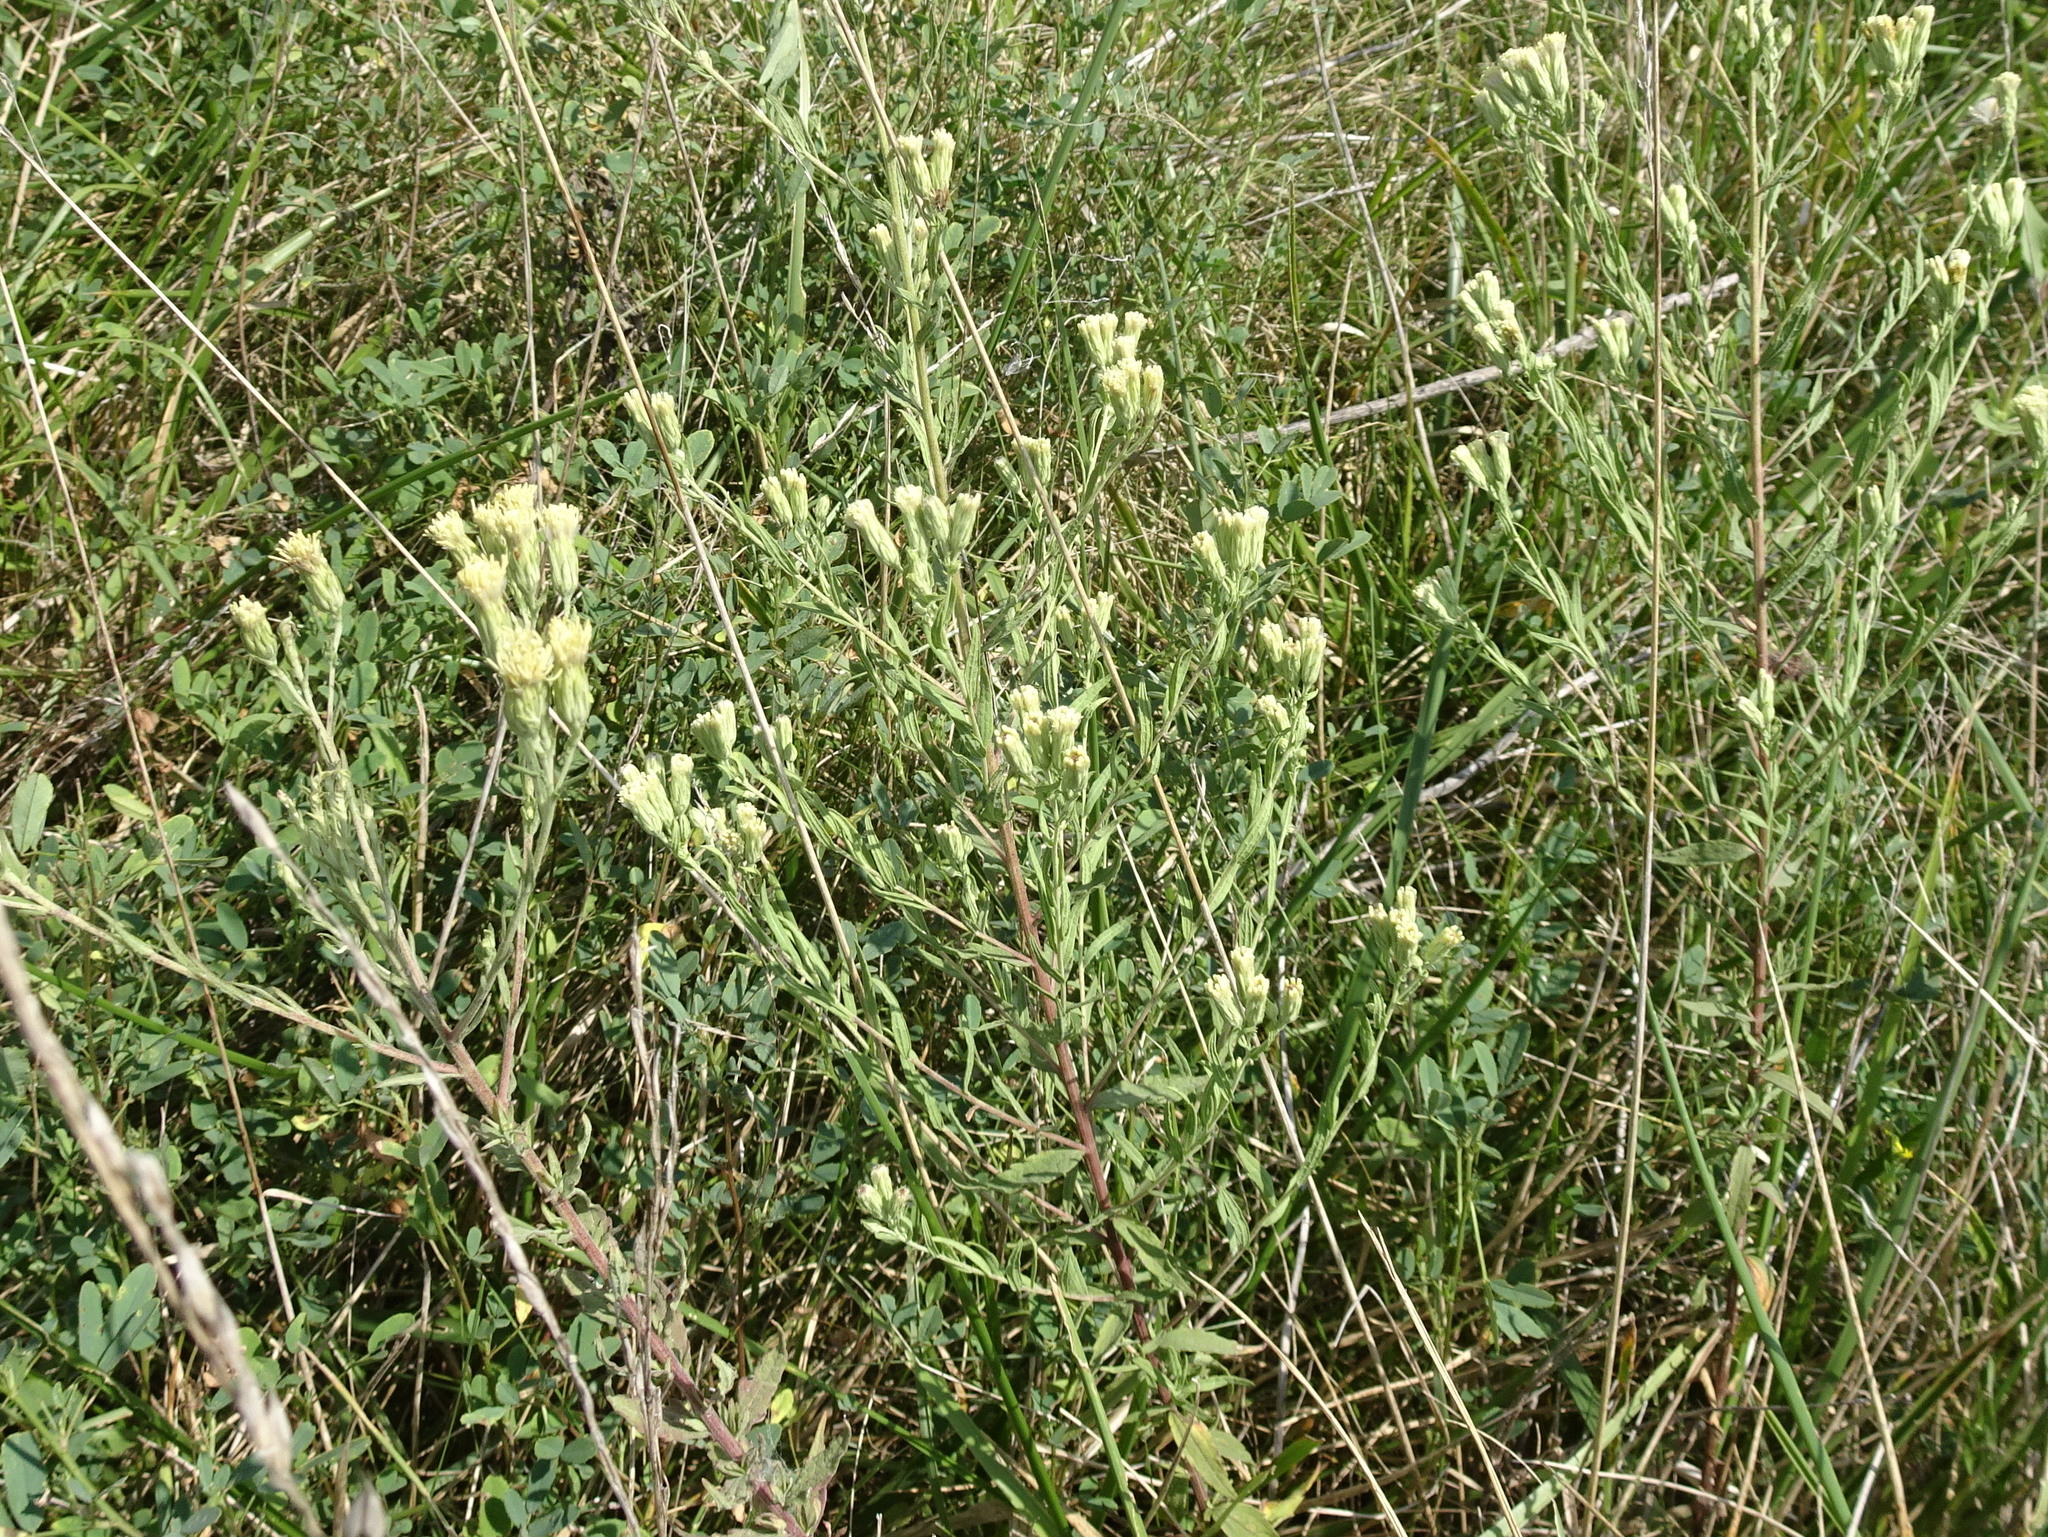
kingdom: Plantae
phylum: Tracheophyta
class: Magnoliopsida
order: Asterales
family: Asteraceae
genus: Brickellia
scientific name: Brickellia eupatorioides
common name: False boneset
